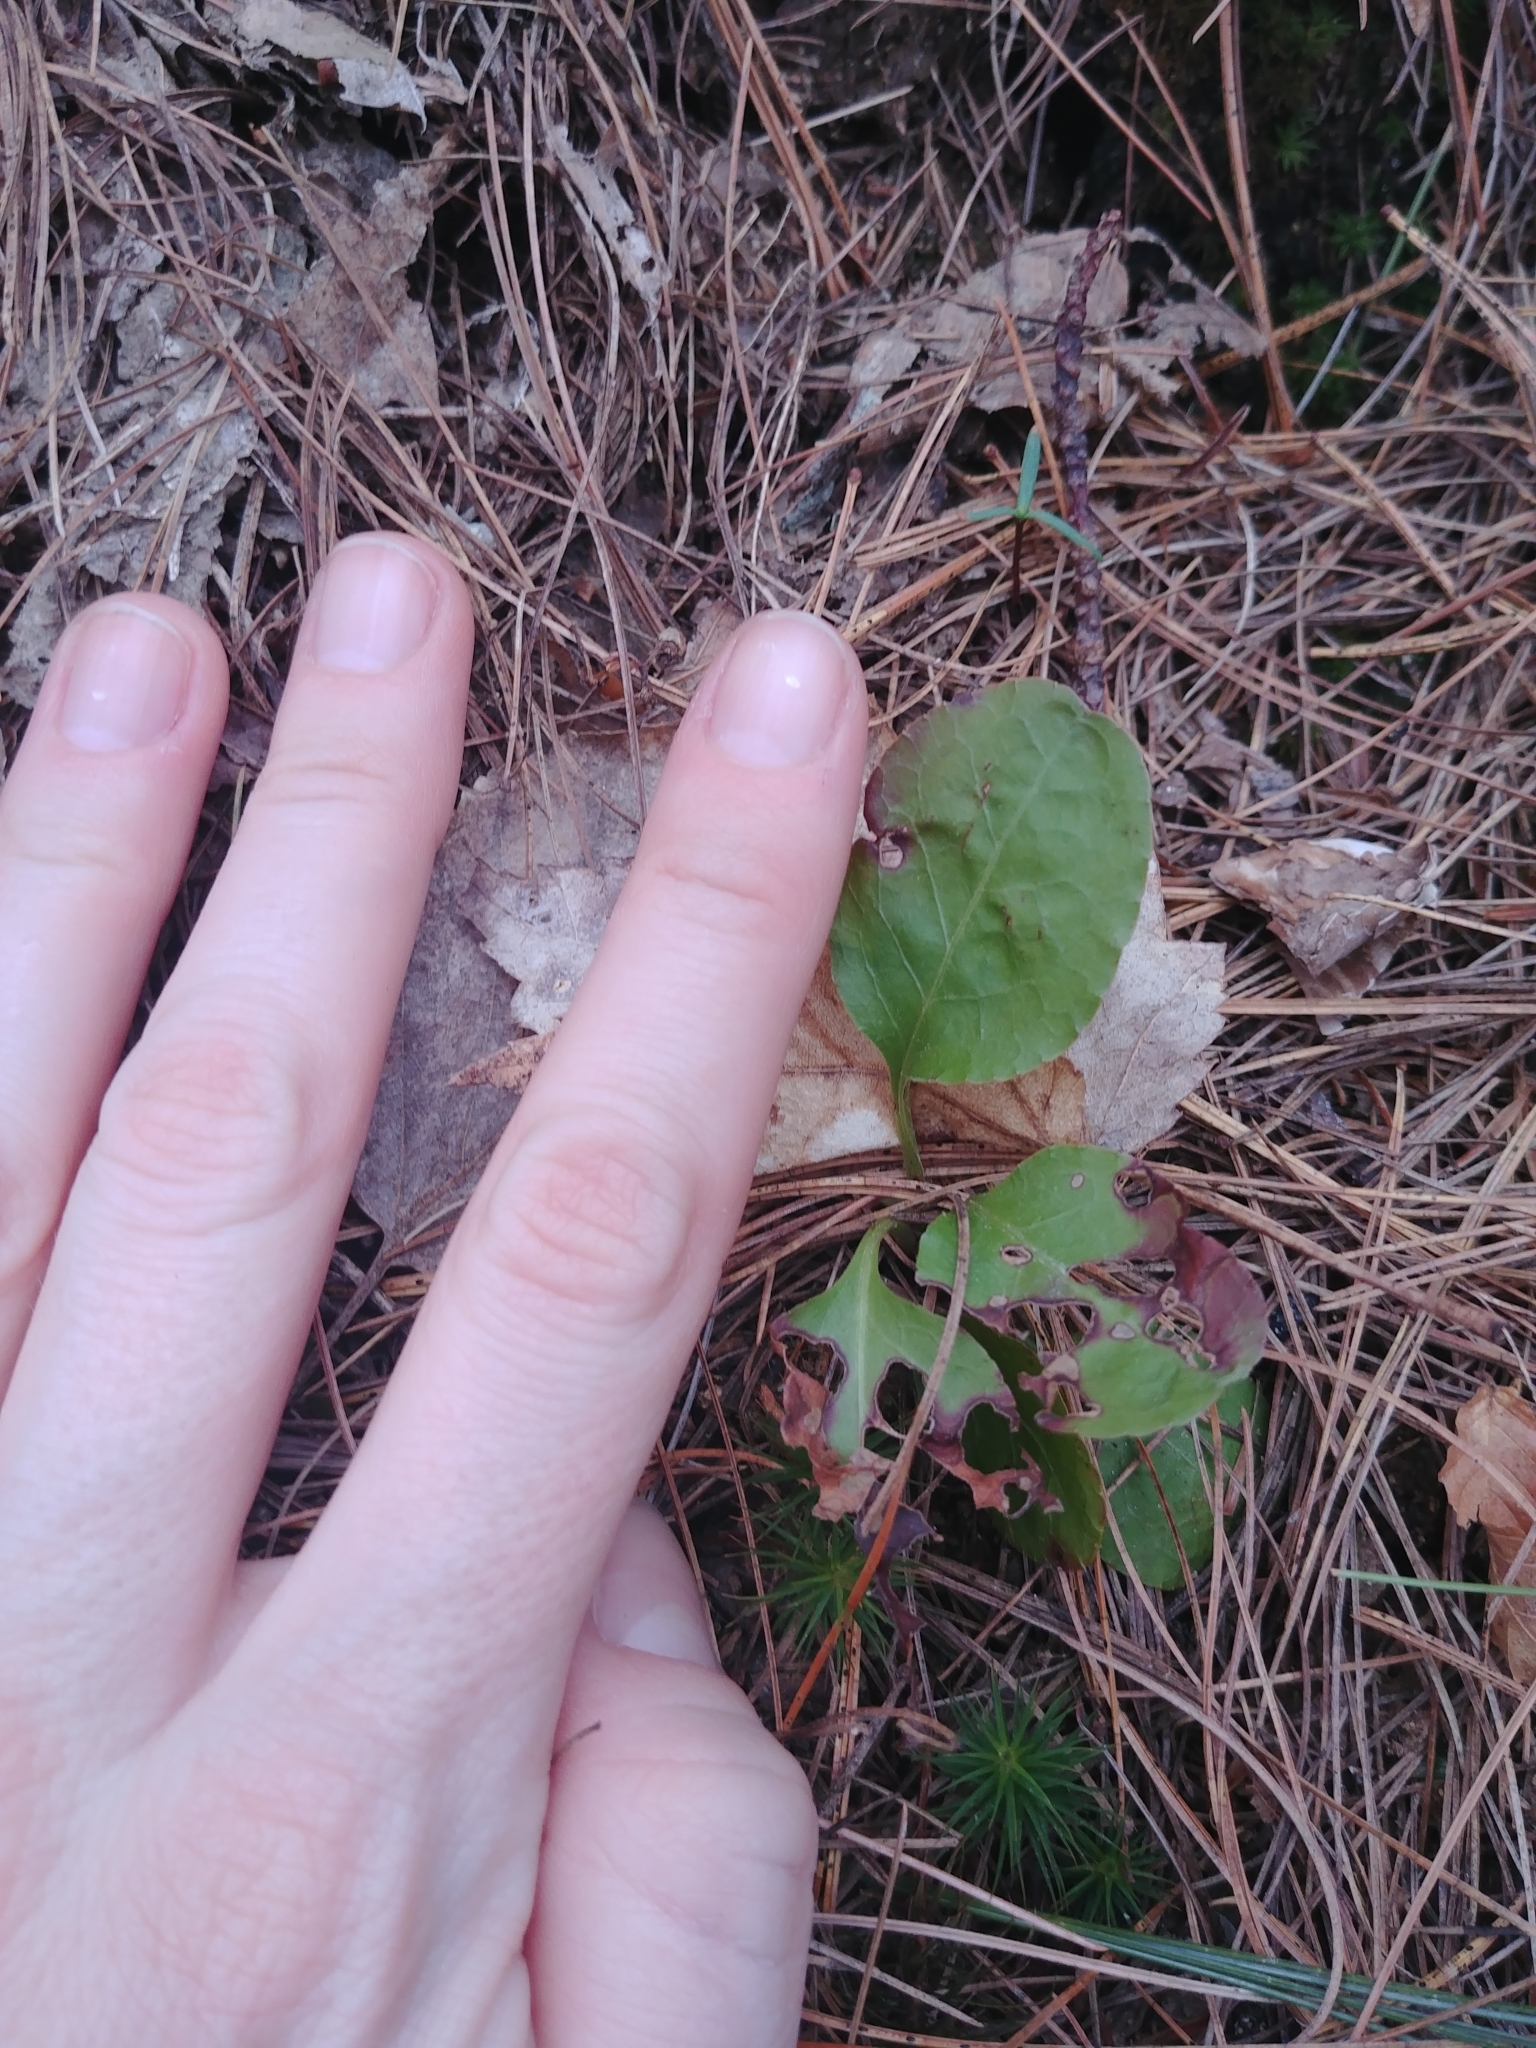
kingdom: Plantae
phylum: Tracheophyta
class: Magnoliopsida
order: Ericales
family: Ericaceae
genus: Pyrola
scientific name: Pyrola elliptica
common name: Shinleaf
